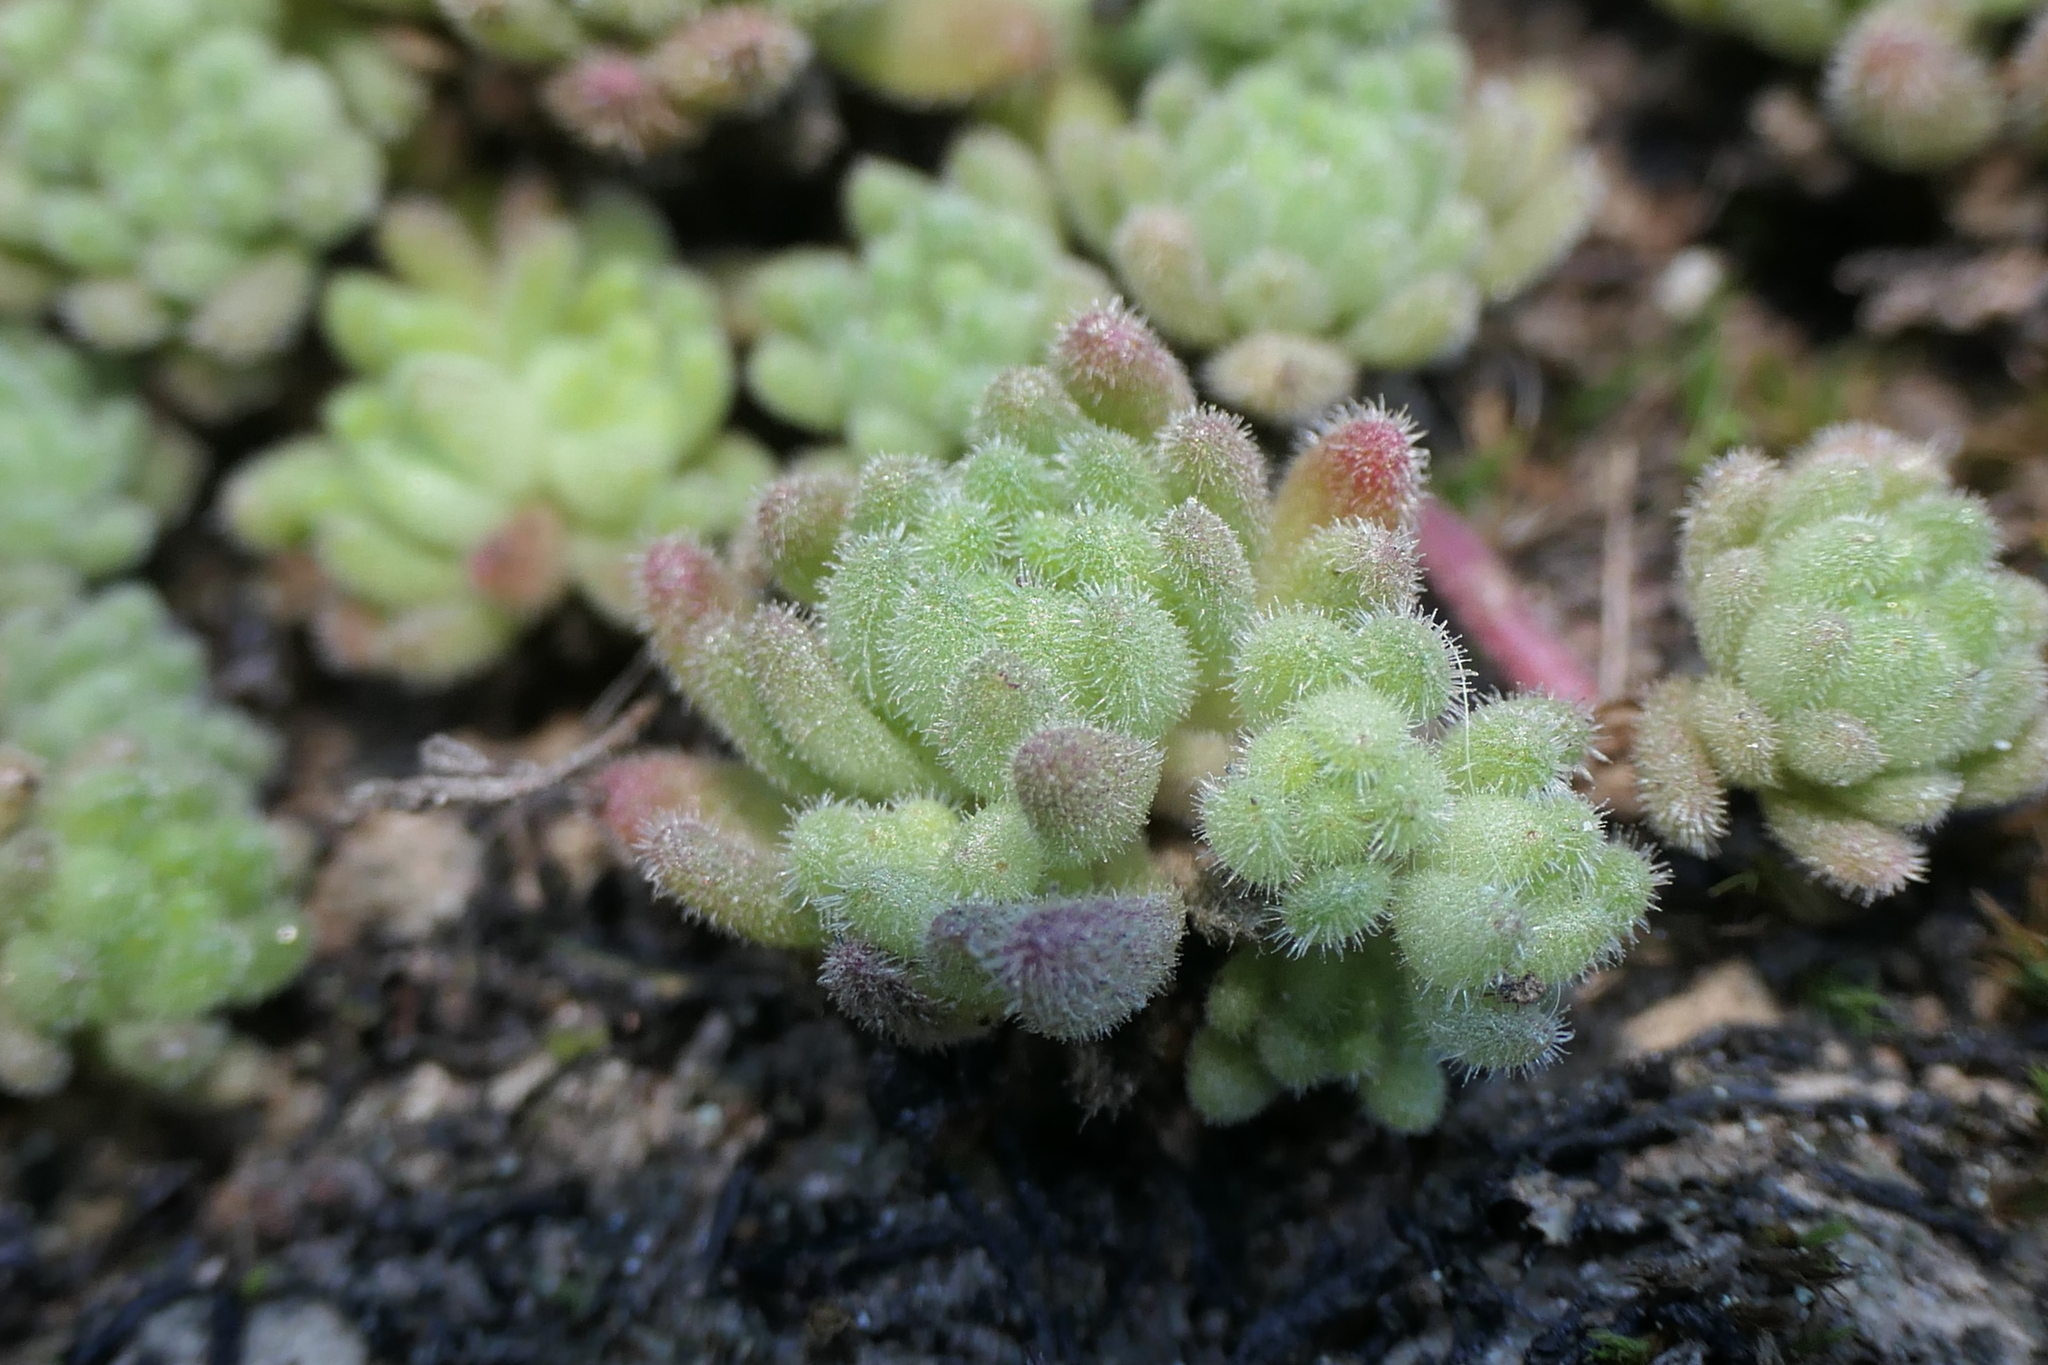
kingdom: Plantae
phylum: Tracheophyta
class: Magnoliopsida
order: Saxifragales
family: Crassulaceae
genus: Sedum
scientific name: Sedum hirsutum
